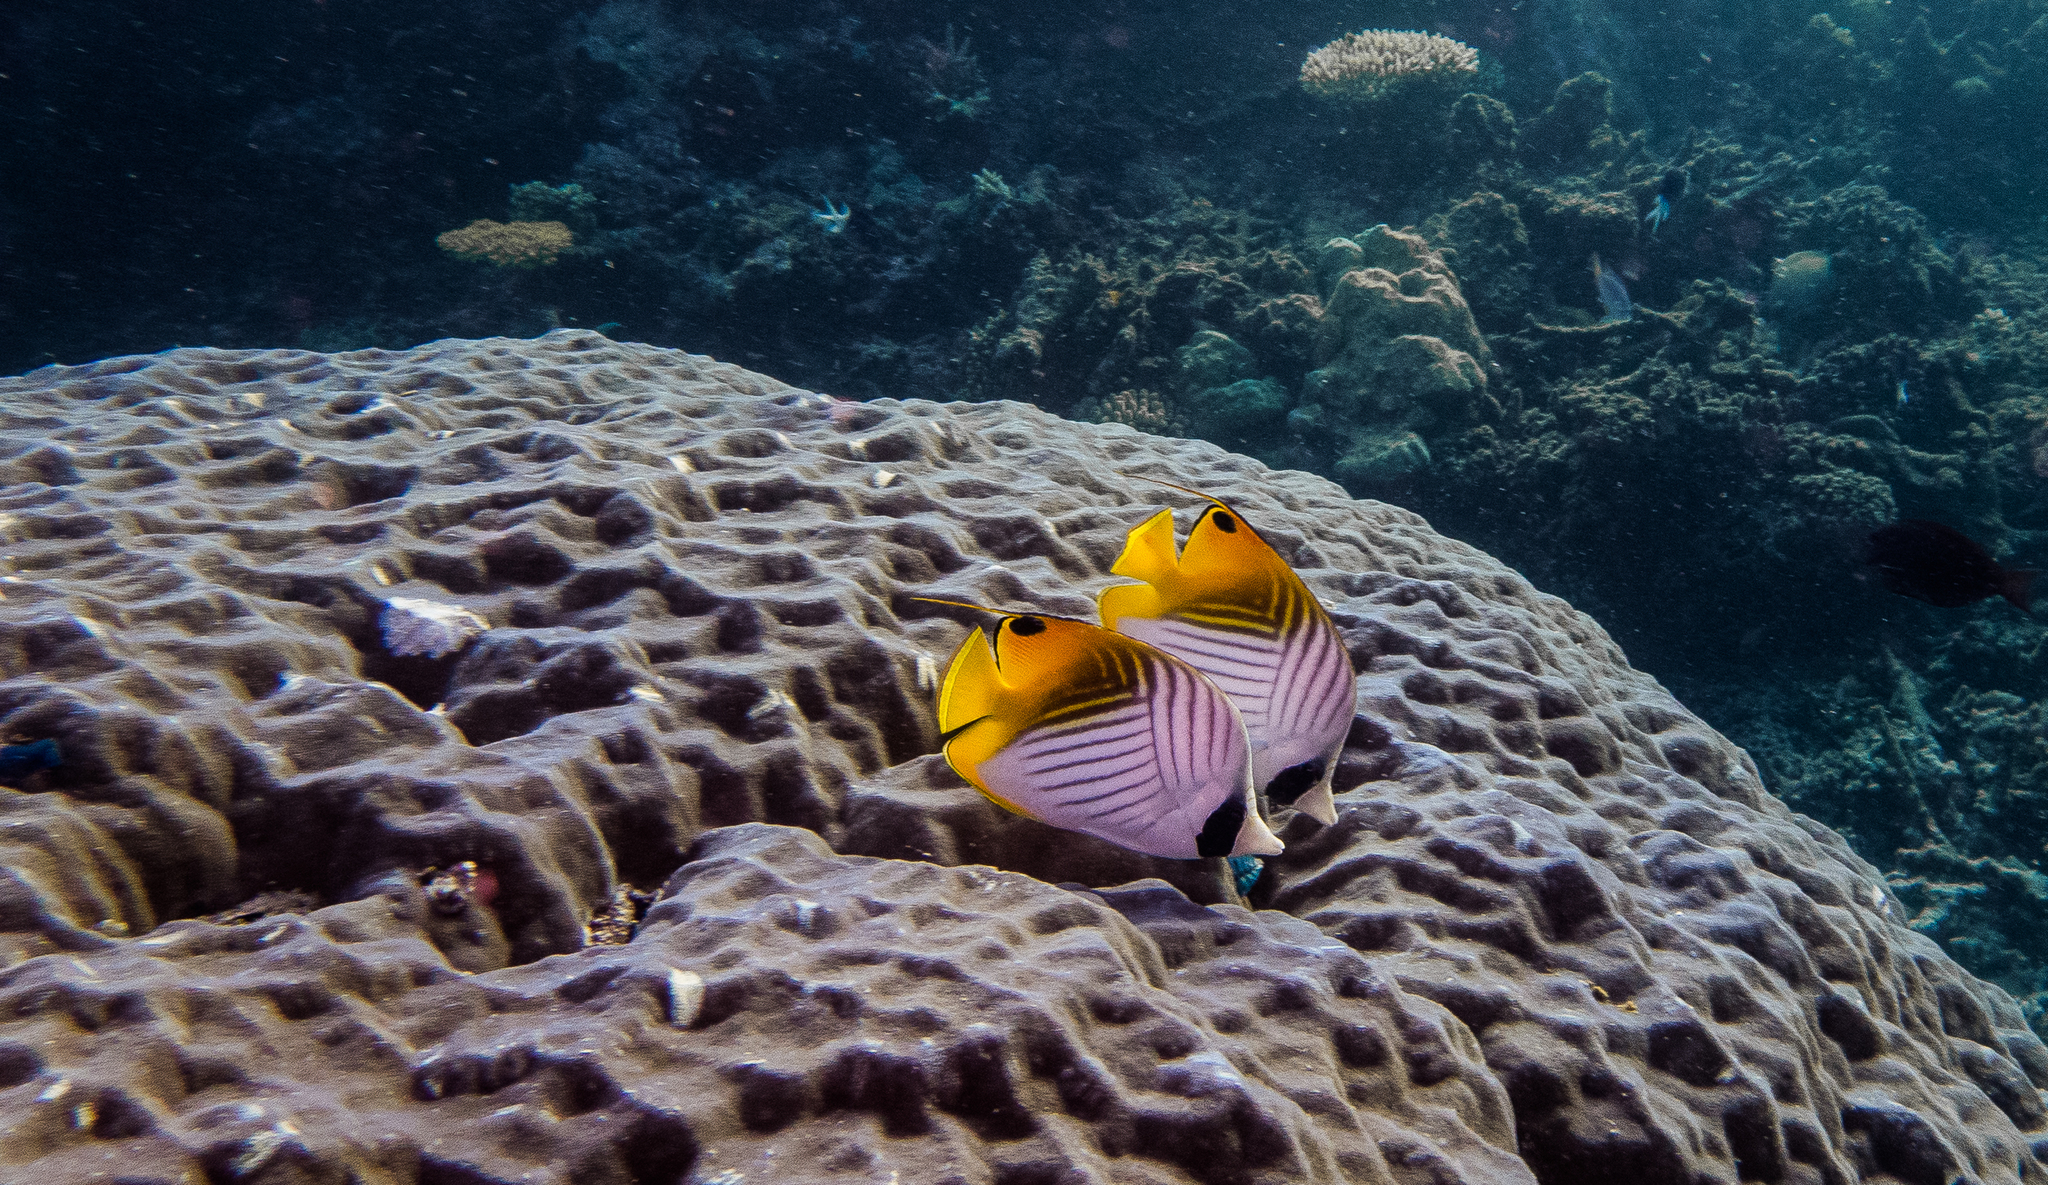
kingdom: Animalia
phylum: Chordata
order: Perciformes
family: Chaetodontidae
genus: Chaetodon
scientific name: Chaetodon auriga
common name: Threadfin butterflyfish
